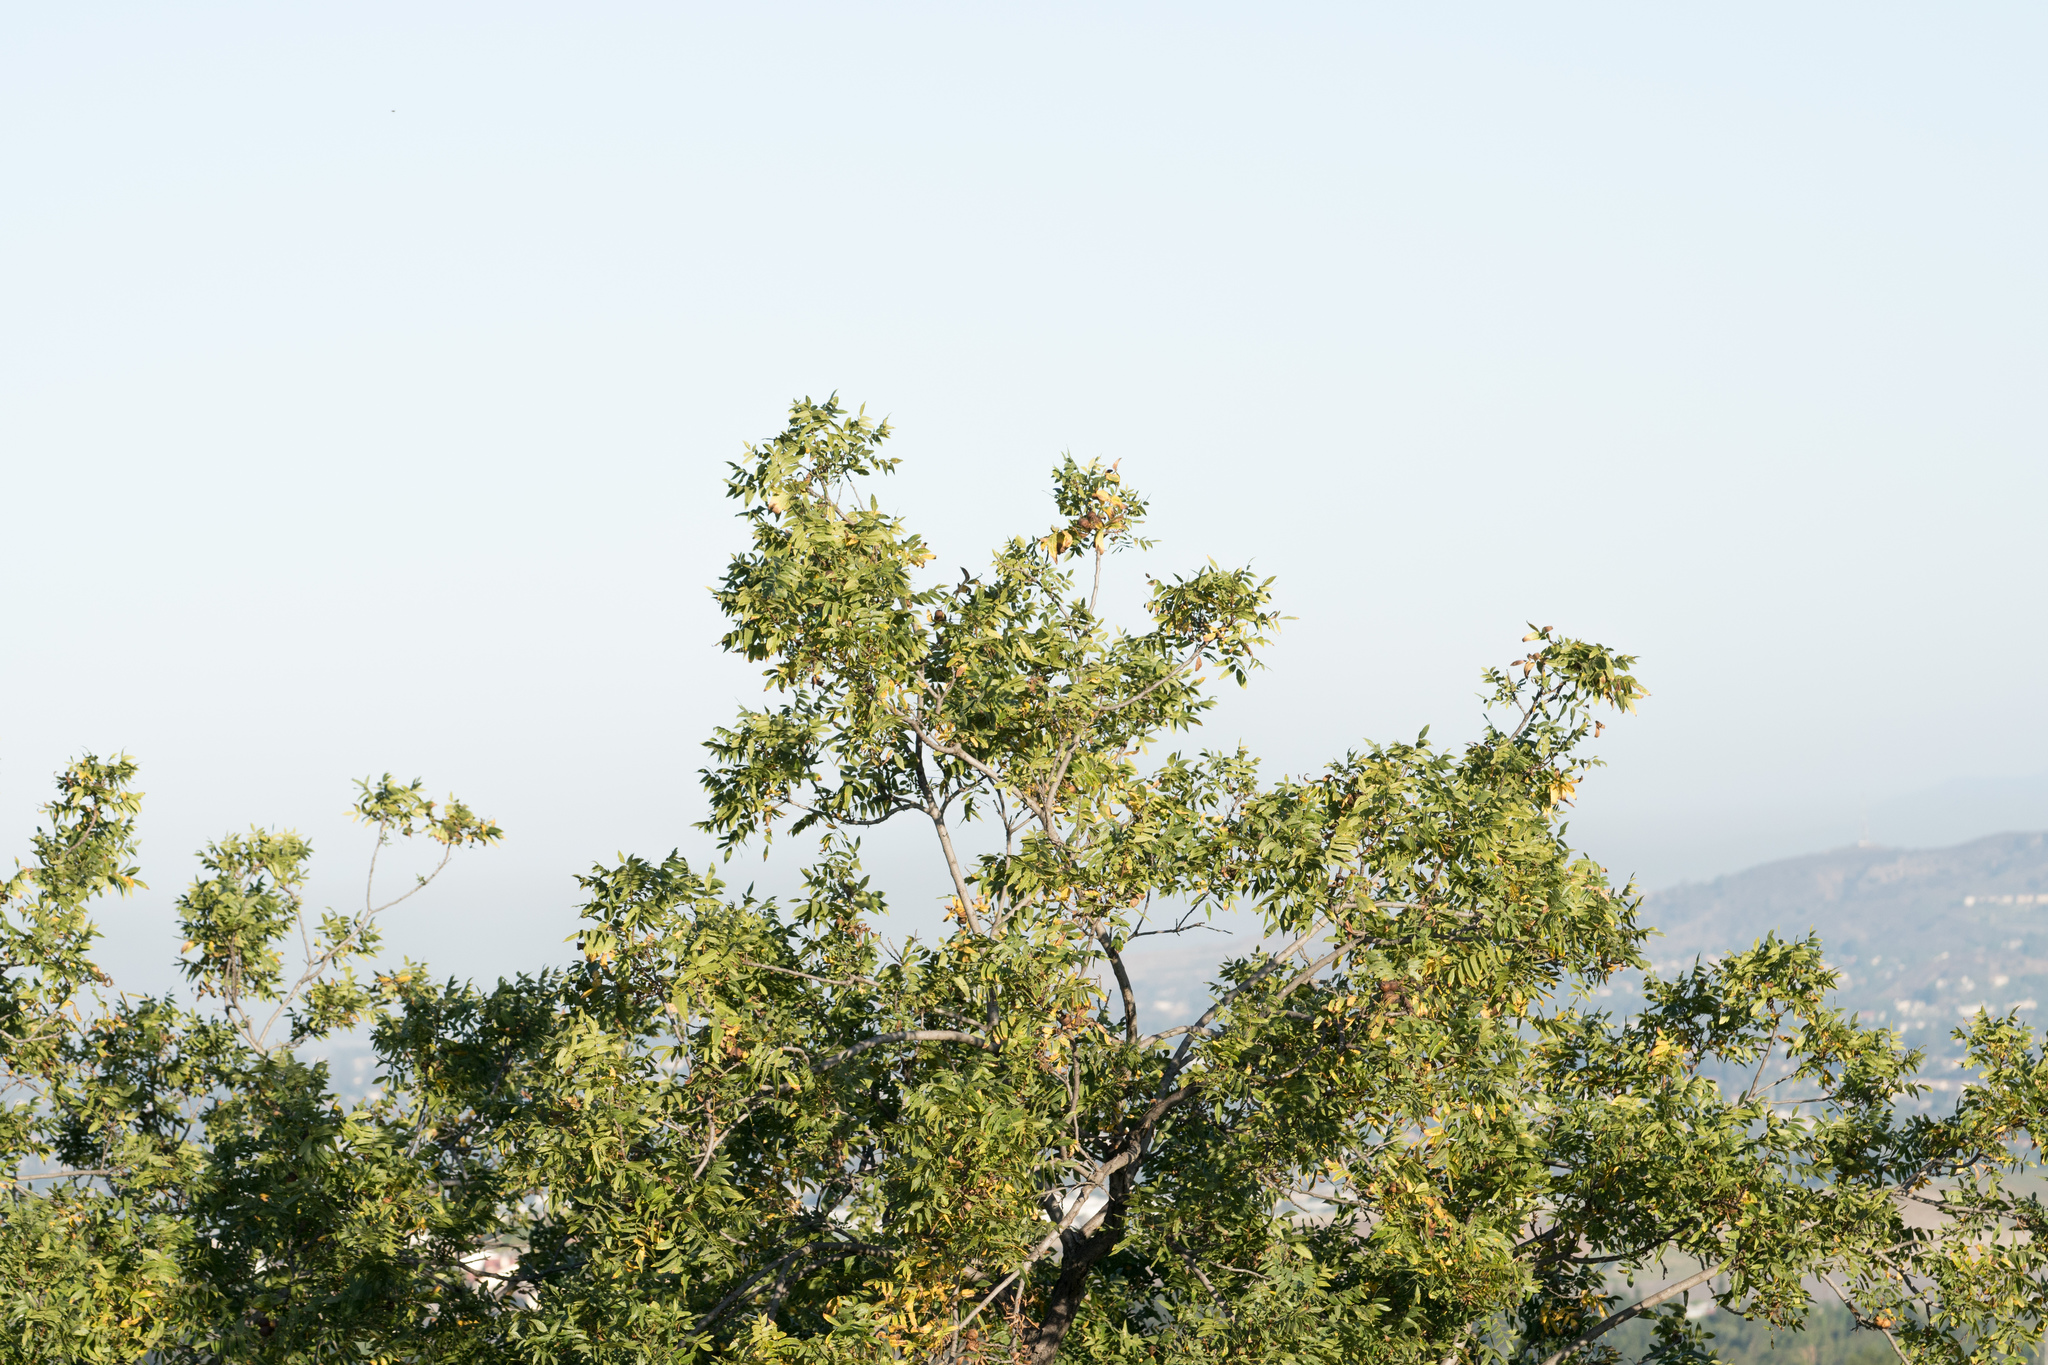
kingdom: Plantae
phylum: Tracheophyta
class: Magnoliopsida
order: Fagales
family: Juglandaceae
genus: Juglans
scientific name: Juglans californica
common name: Southern california black walnut
